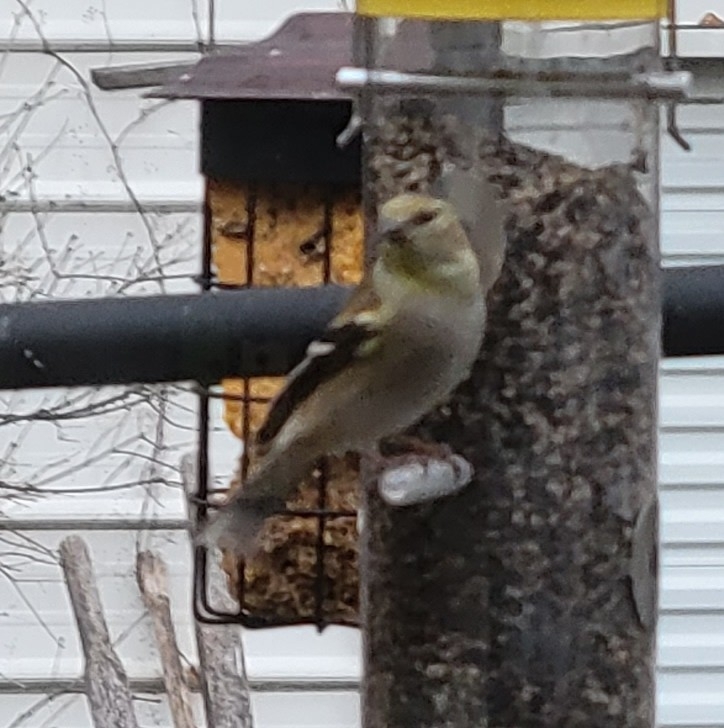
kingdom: Animalia
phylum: Chordata
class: Aves
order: Passeriformes
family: Fringillidae
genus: Spinus
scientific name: Spinus tristis
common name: American goldfinch
